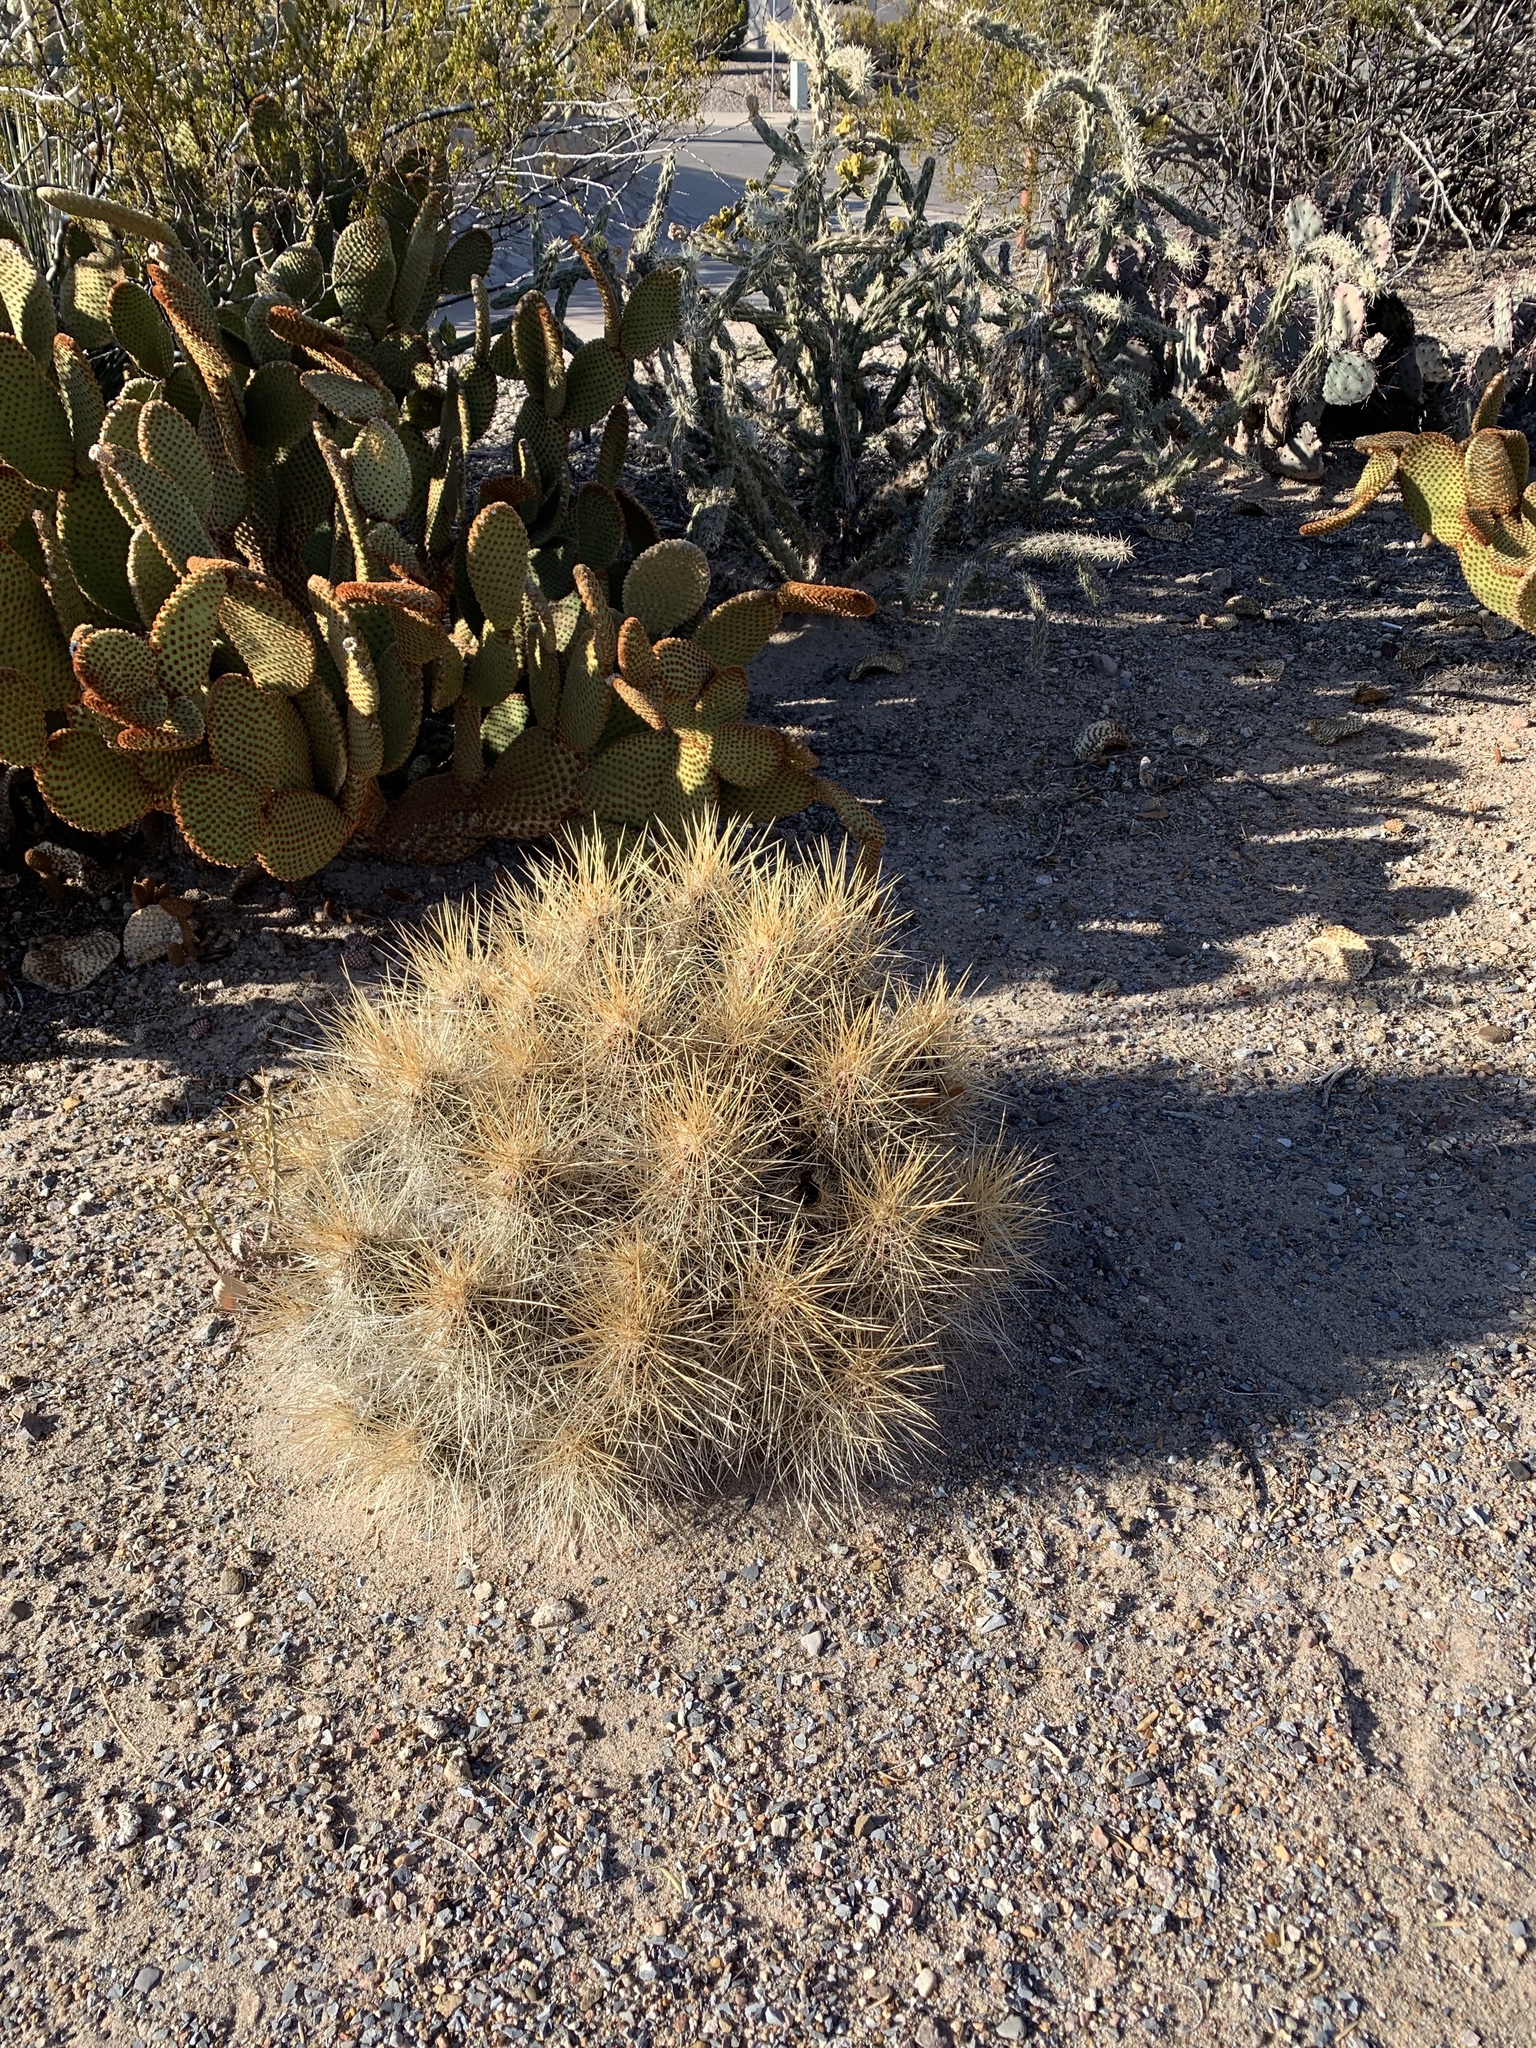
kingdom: Plantae
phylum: Tracheophyta
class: Magnoliopsida
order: Caryophyllales
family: Cactaceae
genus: Echinocereus
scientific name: Echinocereus stramineus
